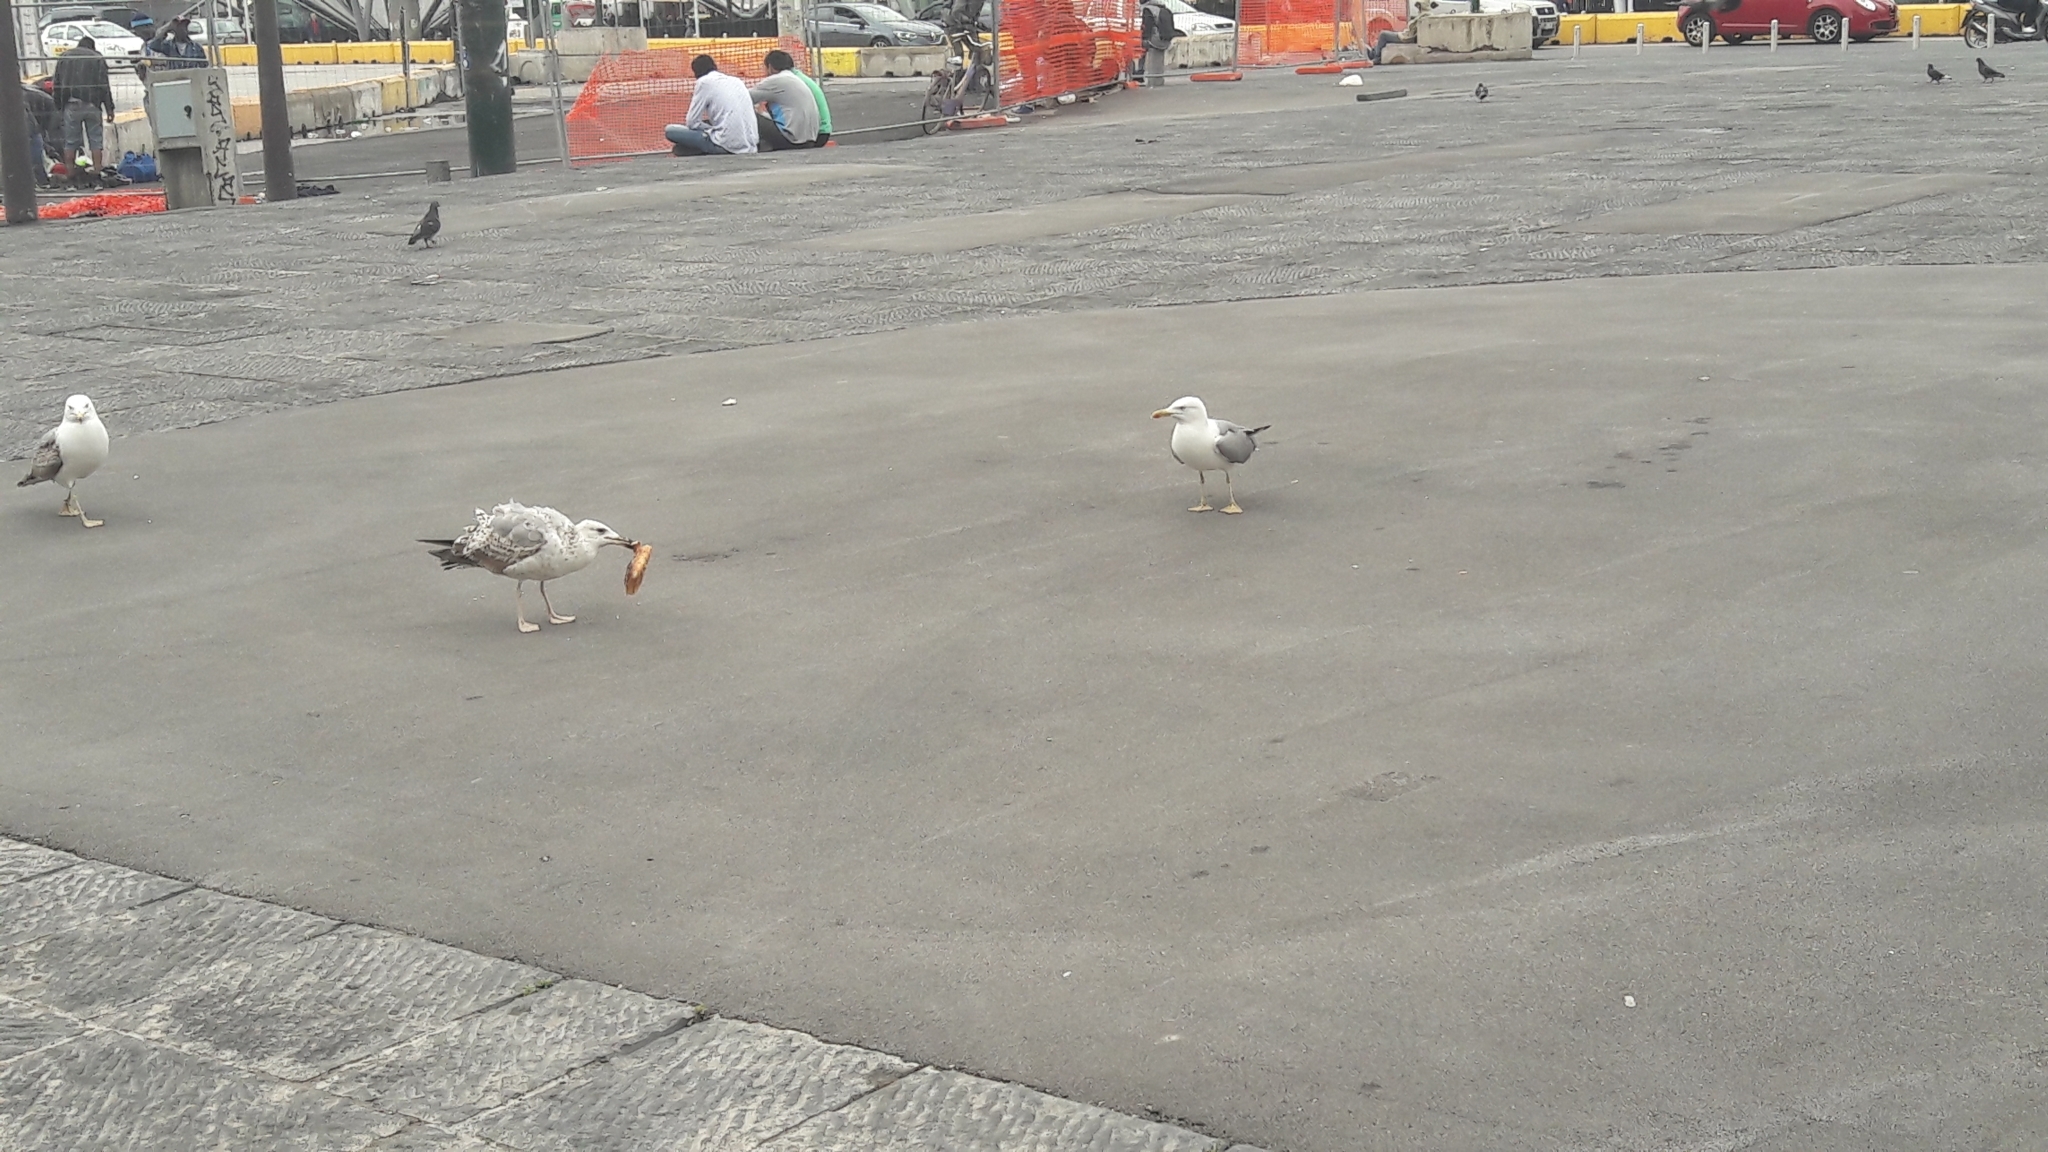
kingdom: Animalia
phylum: Chordata
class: Aves
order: Charadriiformes
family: Laridae
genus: Larus
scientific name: Larus michahellis
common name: Yellow-legged gull
